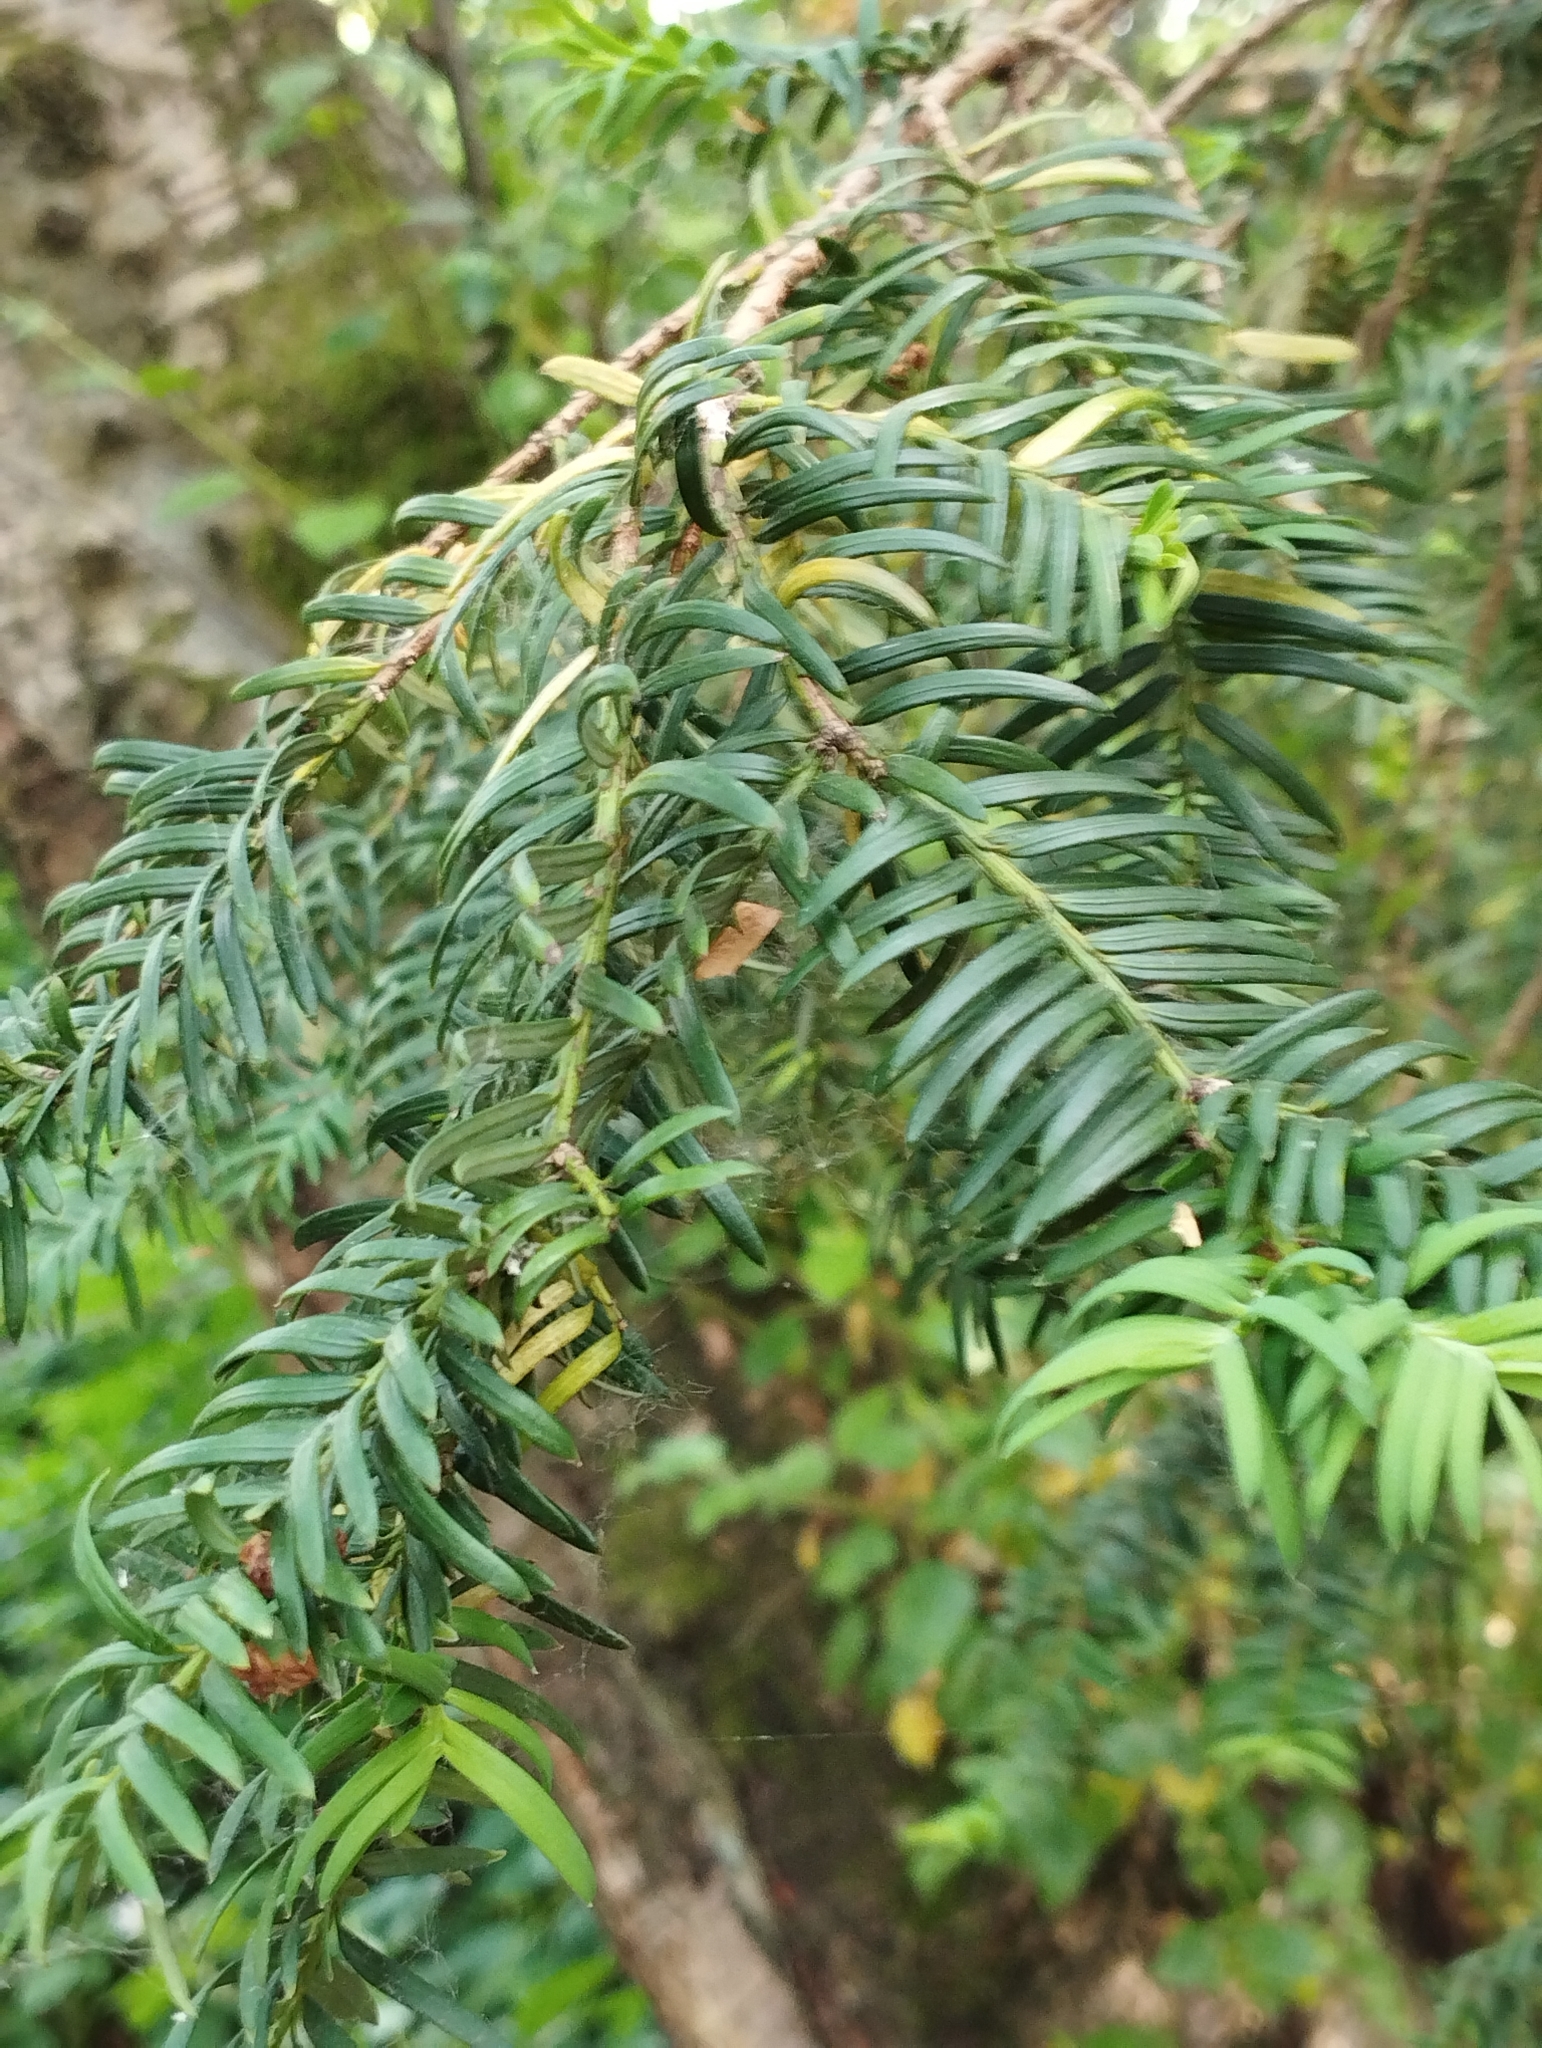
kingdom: Plantae
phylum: Tracheophyta
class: Pinopsida
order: Pinales
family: Taxaceae
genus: Taxus
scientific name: Taxus baccata
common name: Yew
